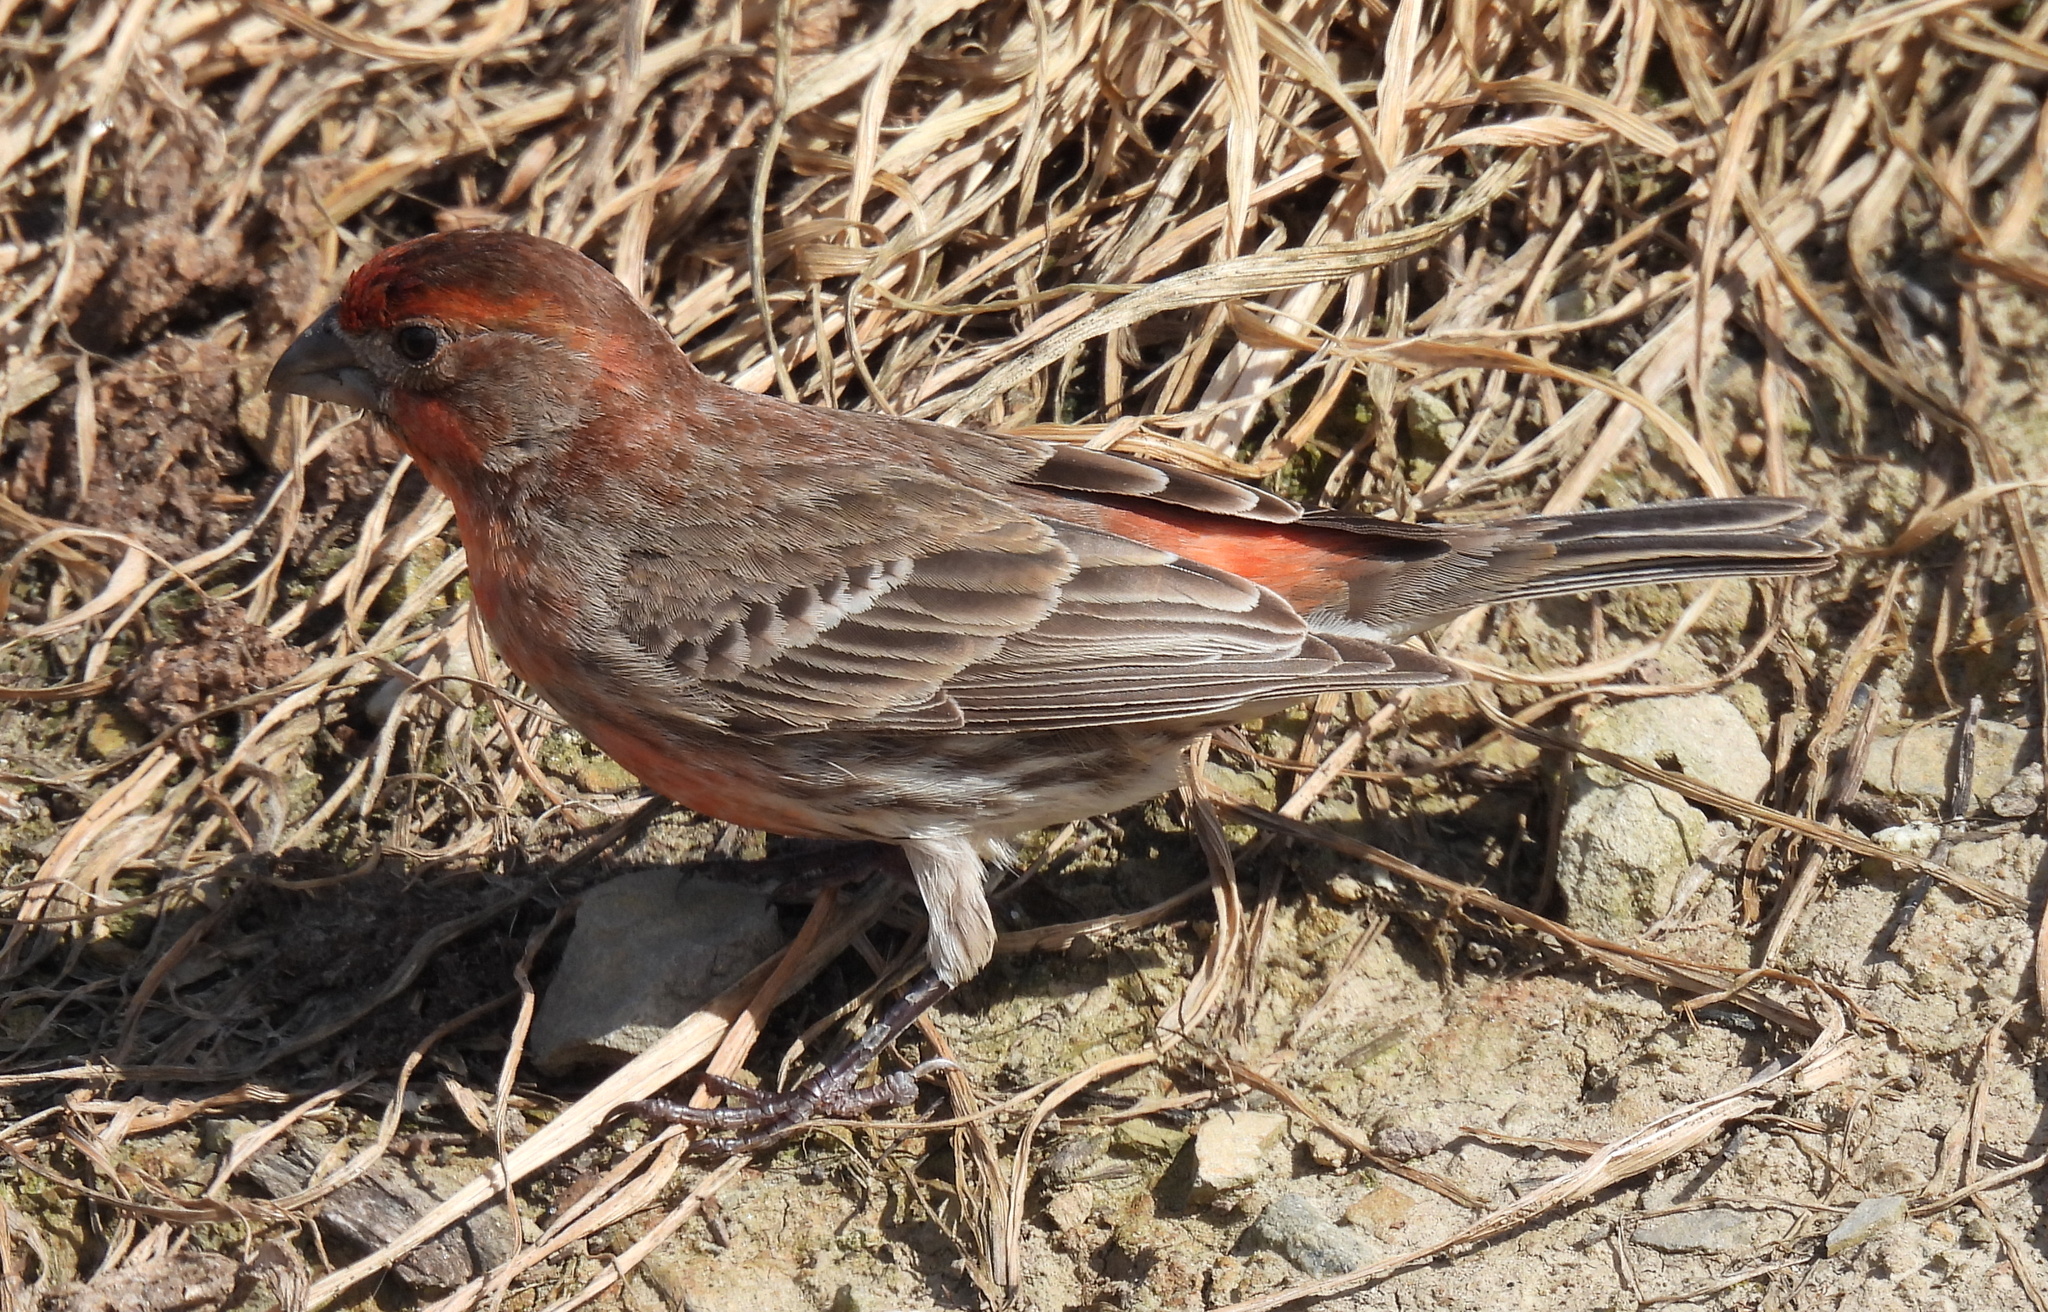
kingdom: Animalia
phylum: Chordata
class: Aves
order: Passeriformes
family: Fringillidae
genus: Haemorhous
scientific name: Haemorhous mexicanus
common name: House finch
